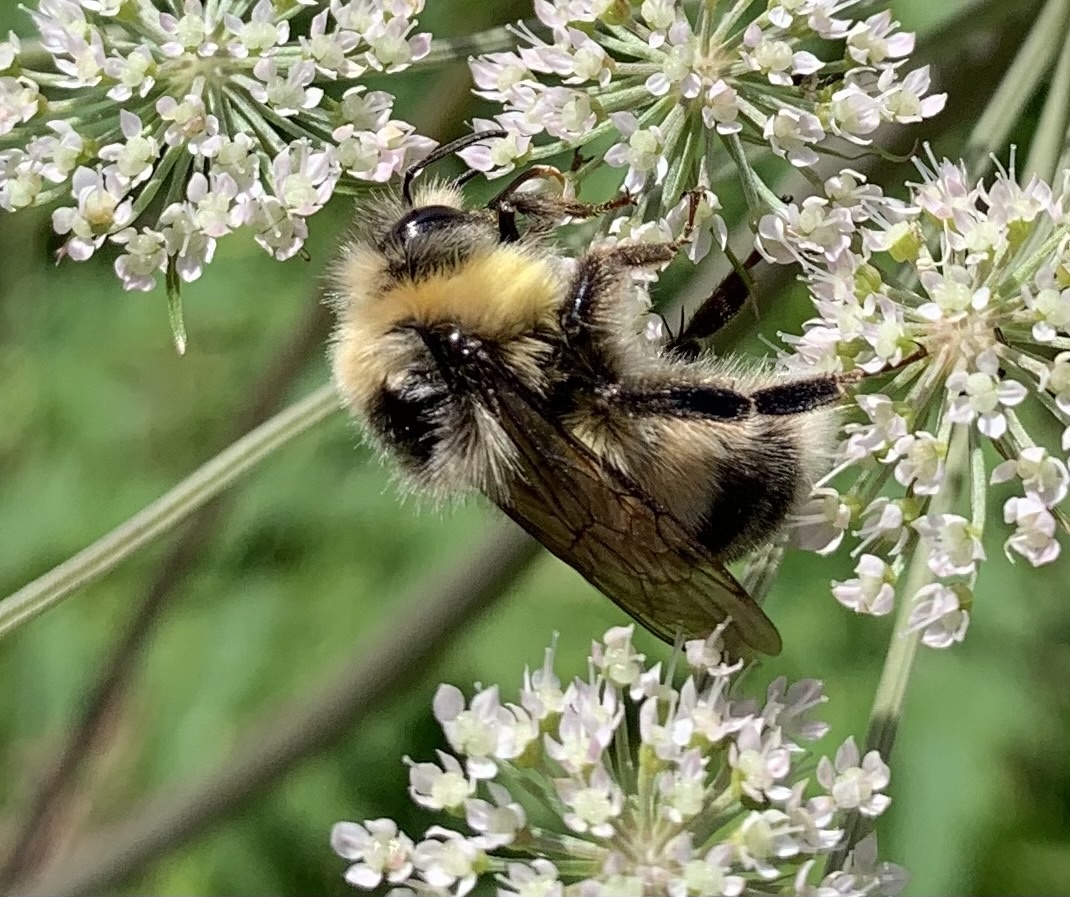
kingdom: Animalia
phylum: Arthropoda
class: Insecta
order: Hymenoptera
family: Apidae
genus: Bombus
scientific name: Bombus lucorum
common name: White-tailed bumblebee
